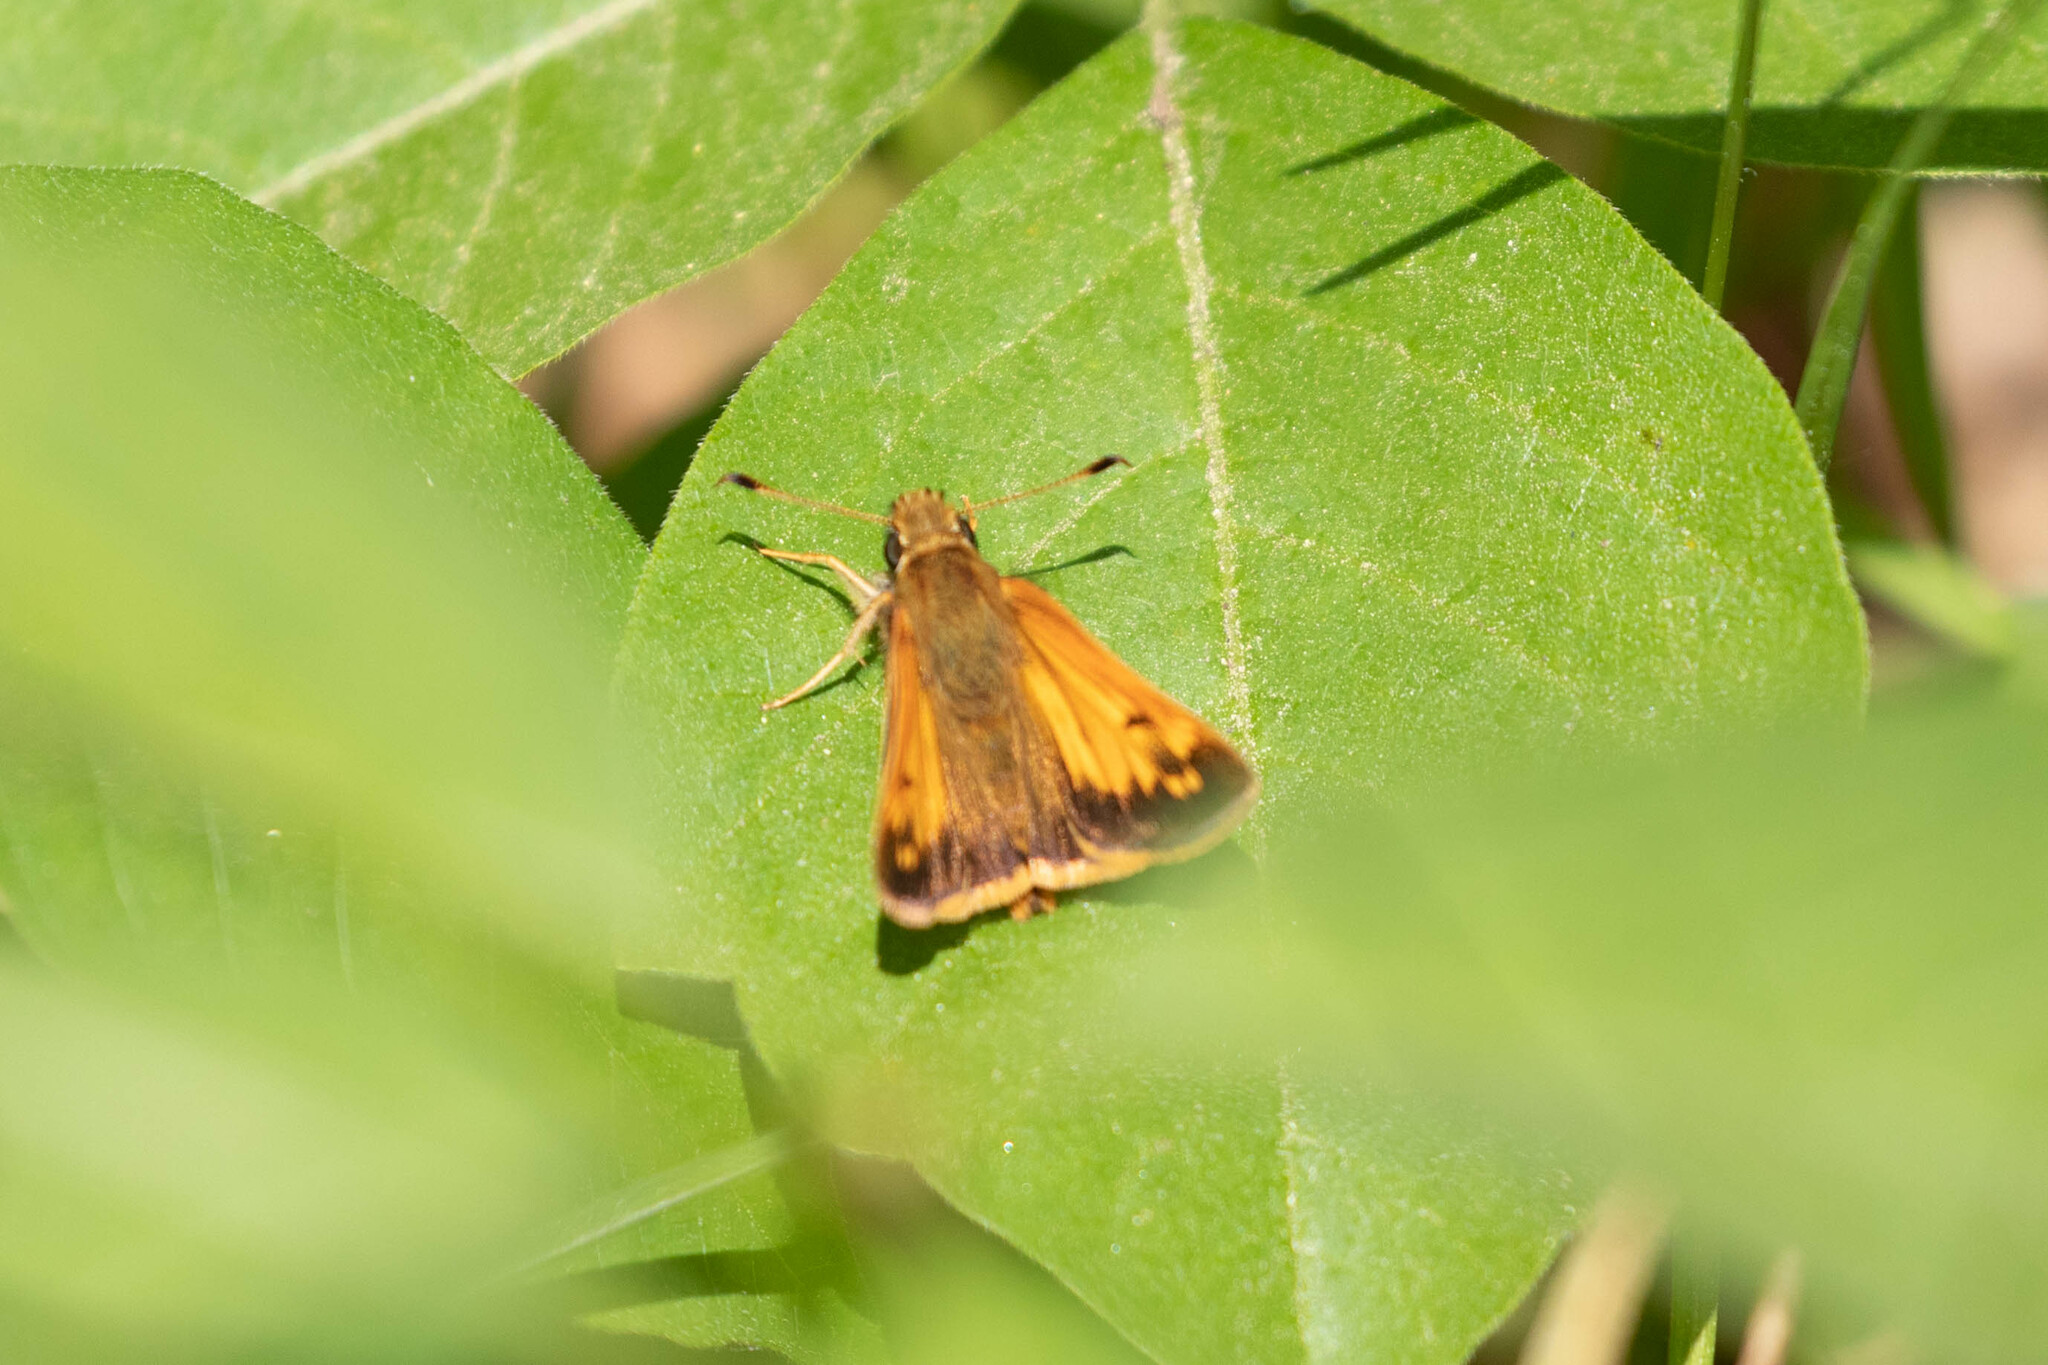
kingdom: Animalia
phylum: Arthropoda
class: Insecta
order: Lepidoptera
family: Hesperiidae
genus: Lon
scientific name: Lon hobomok
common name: Hobomok skipper
